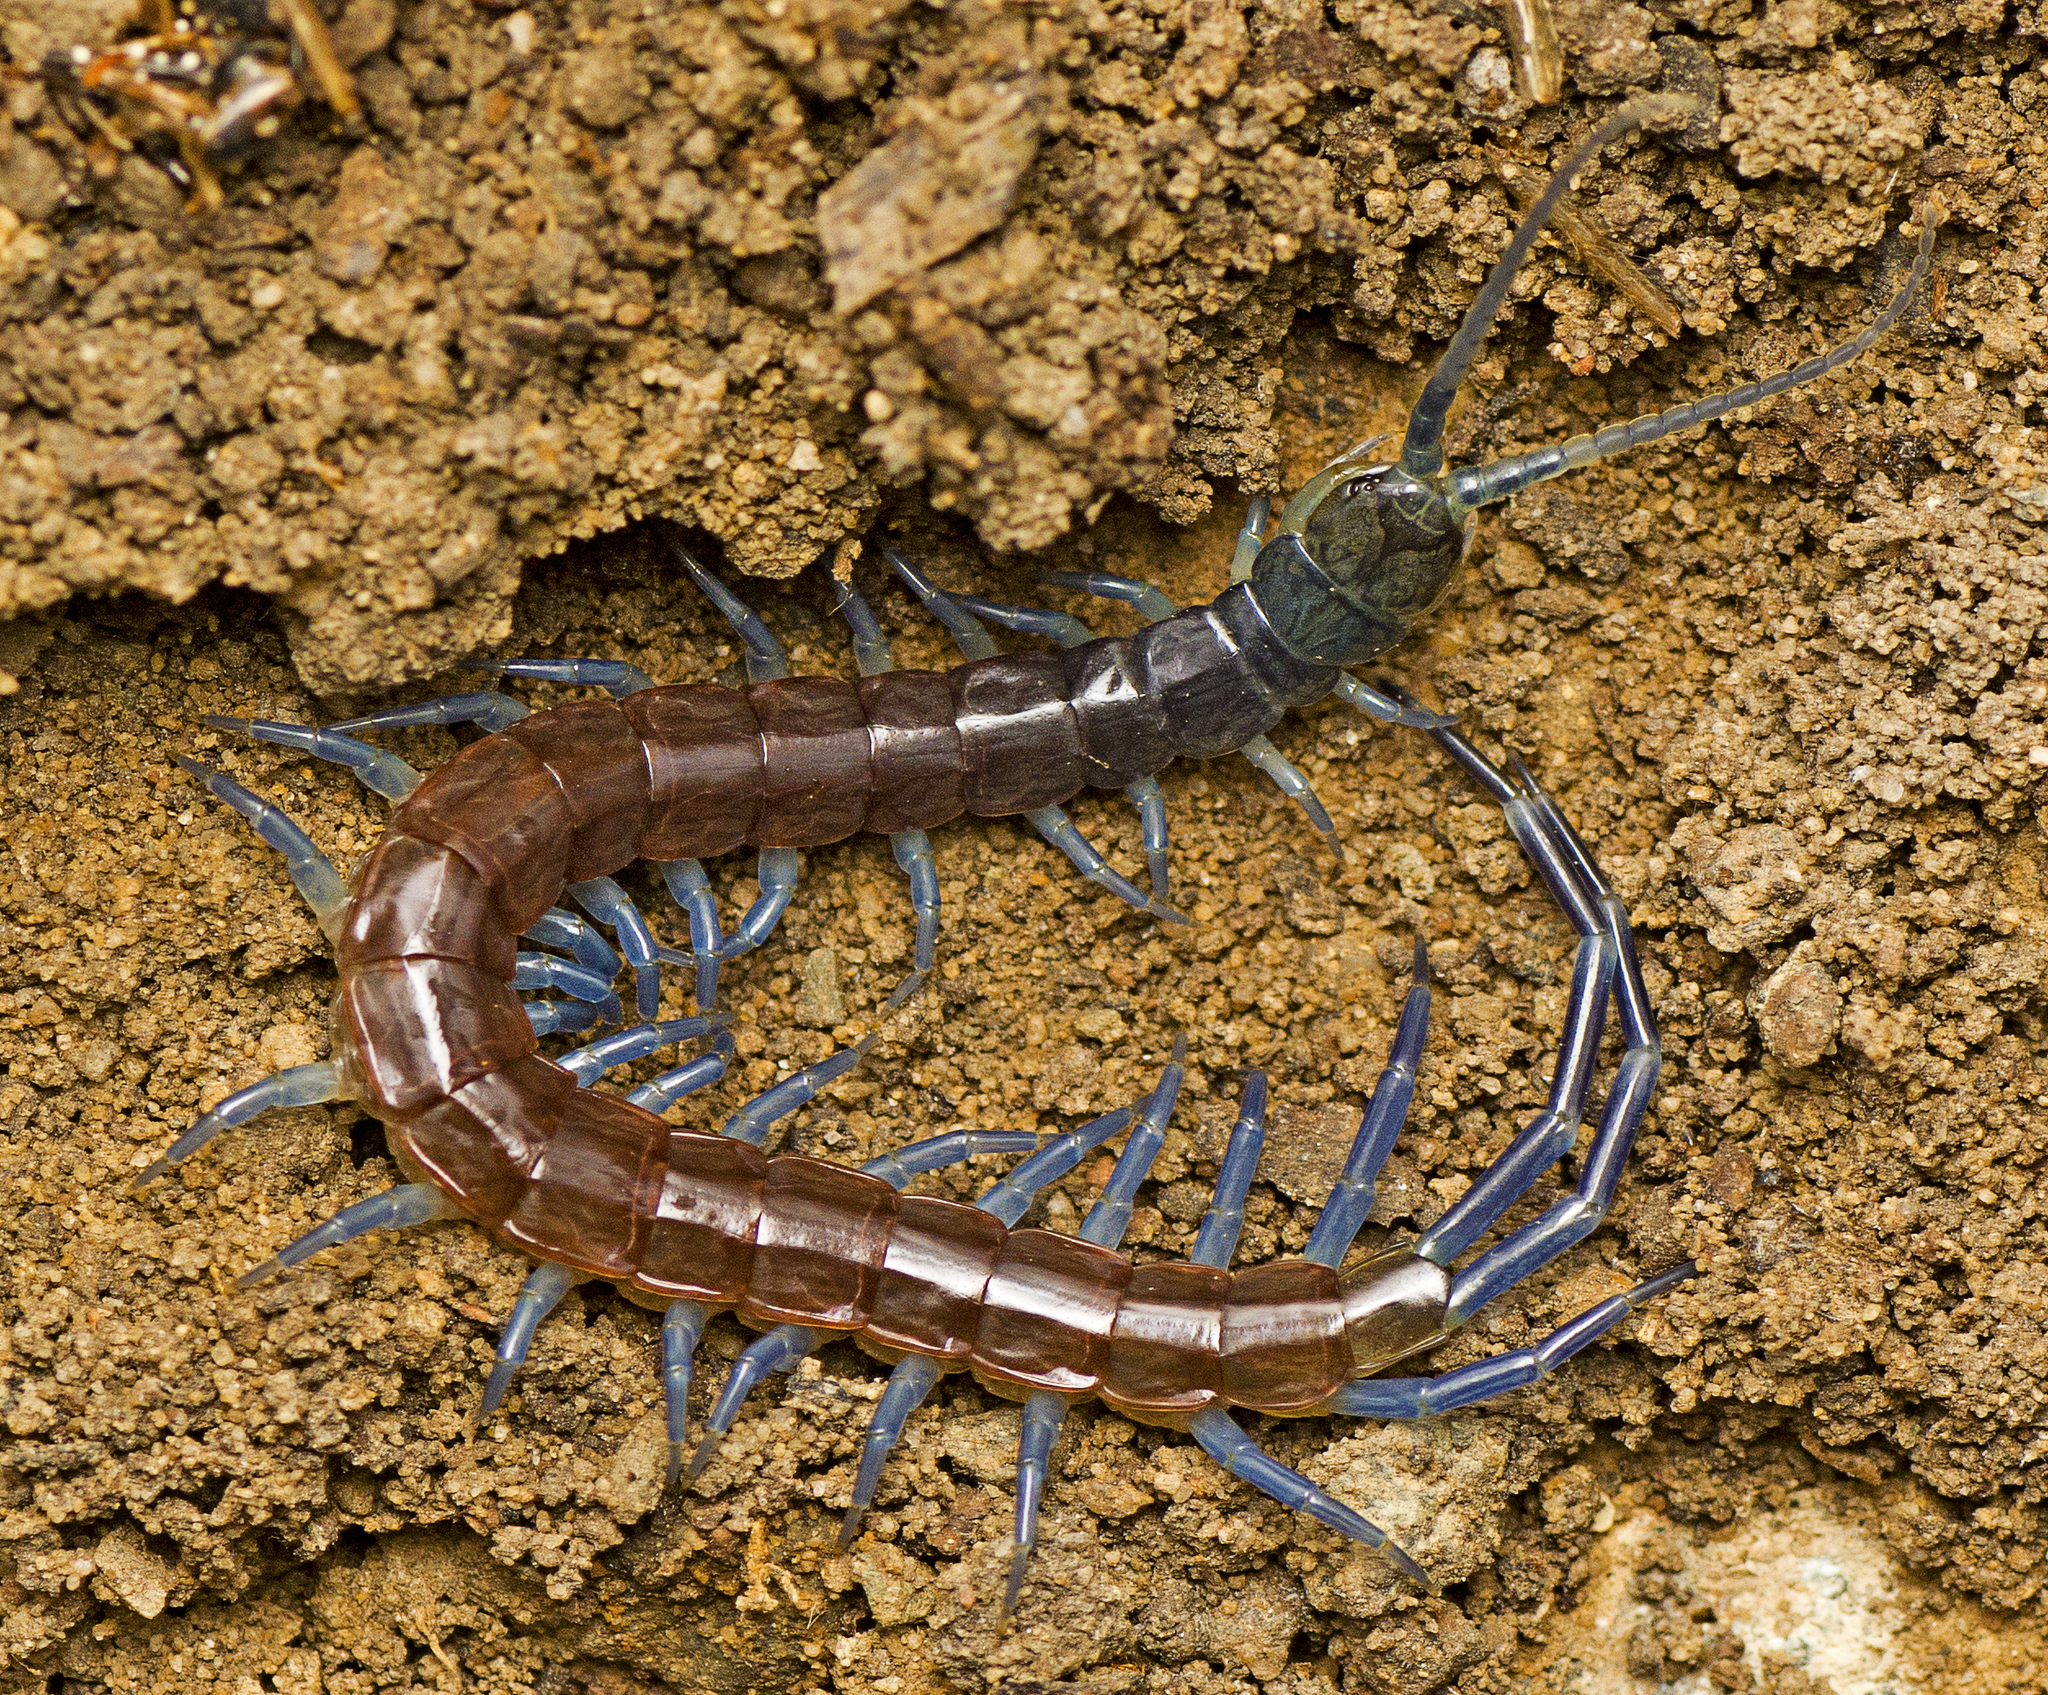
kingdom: Animalia
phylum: Arthropoda
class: Chilopoda
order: Scolopendromorpha
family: Scolopendridae
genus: Rhysida
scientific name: Rhysida nuda
